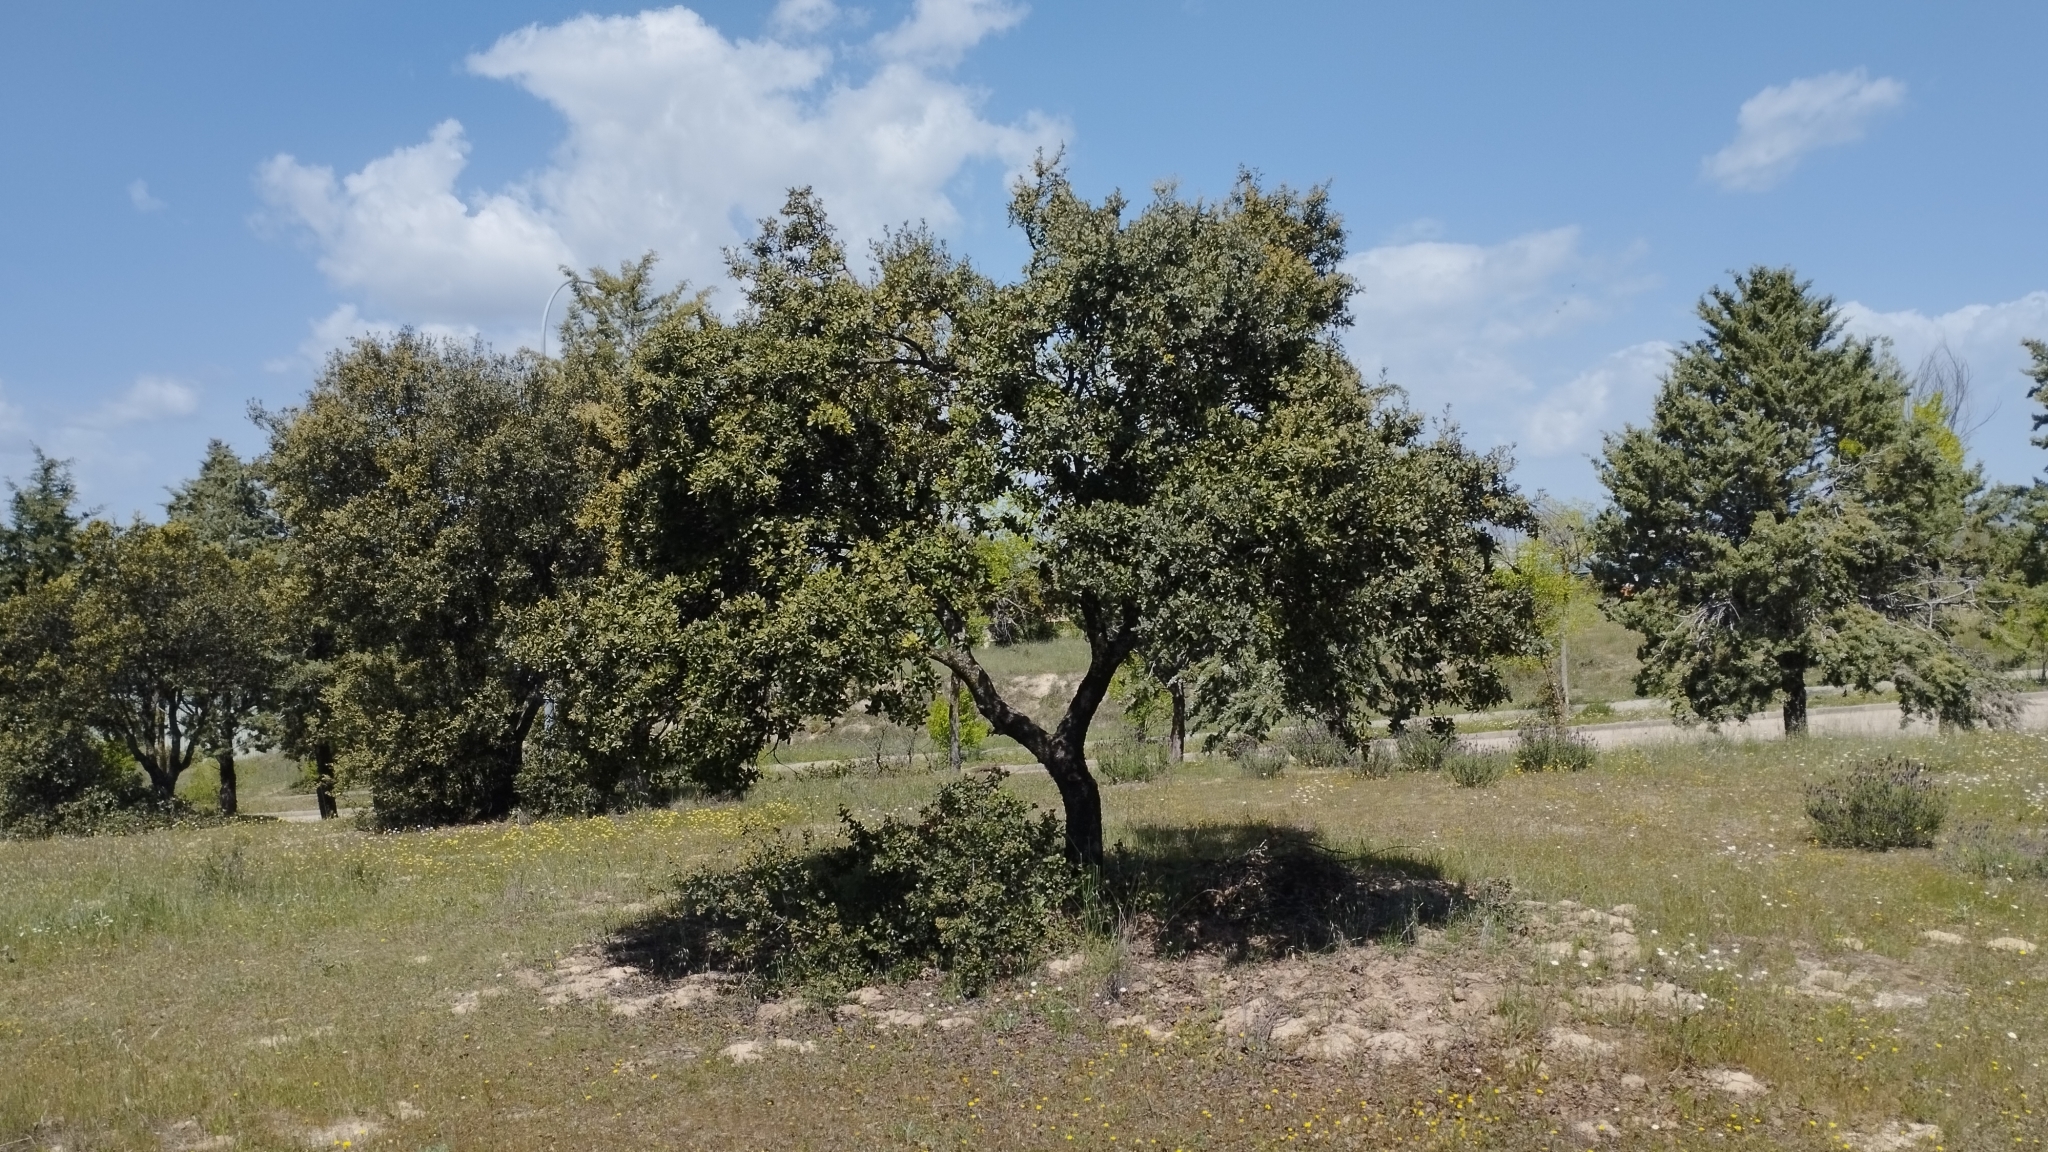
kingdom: Plantae
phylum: Tracheophyta
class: Magnoliopsida
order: Fagales
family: Fagaceae
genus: Quercus
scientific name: Quercus rotundifolia
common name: Holm oak
